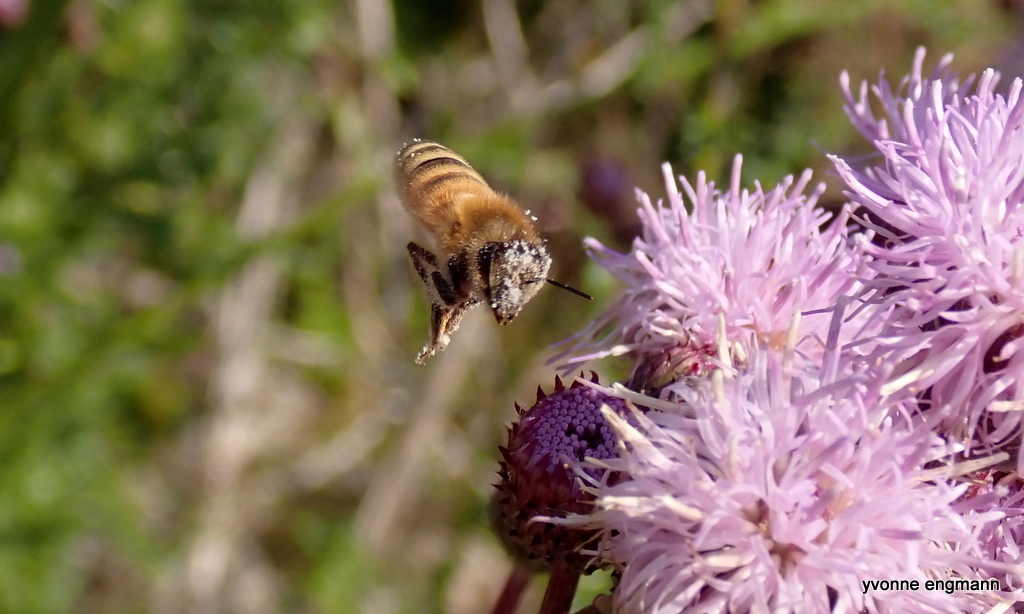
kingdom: Animalia
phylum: Arthropoda
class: Insecta
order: Hymenoptera
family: Apidae
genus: Apis
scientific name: Apis mellifera
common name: Honey bee
